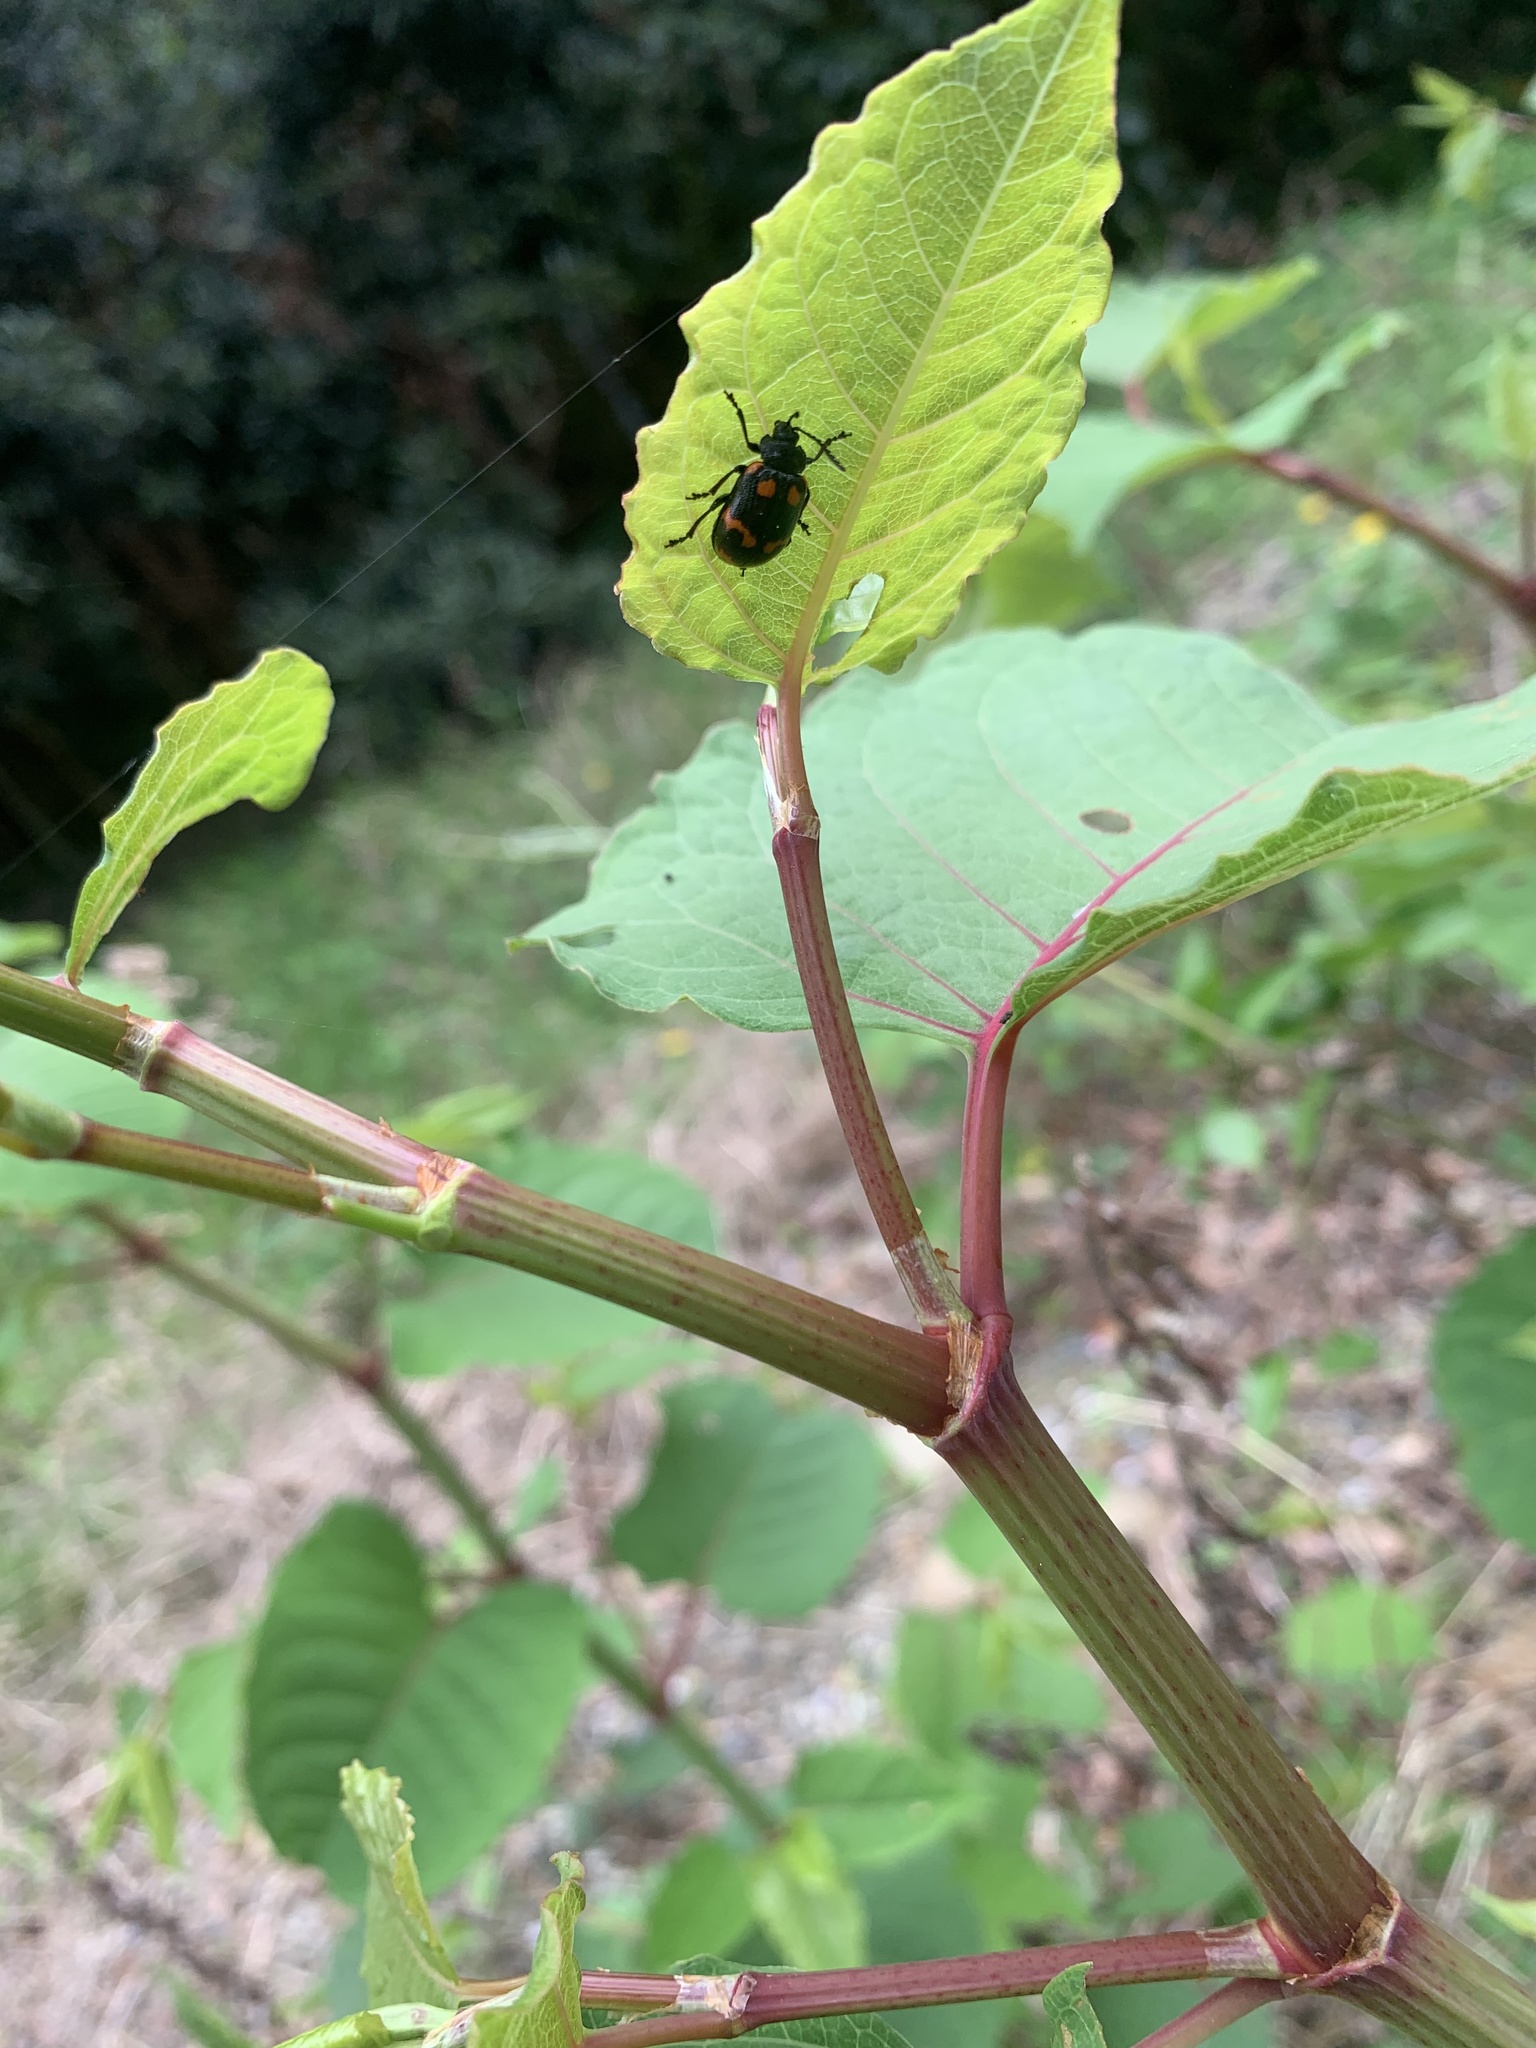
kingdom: Animalia
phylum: Arthropoda
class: Insecta
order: Coleoptera
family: Chrysomelidae
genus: Gallerucida
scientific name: Gallerucida bifasciata
